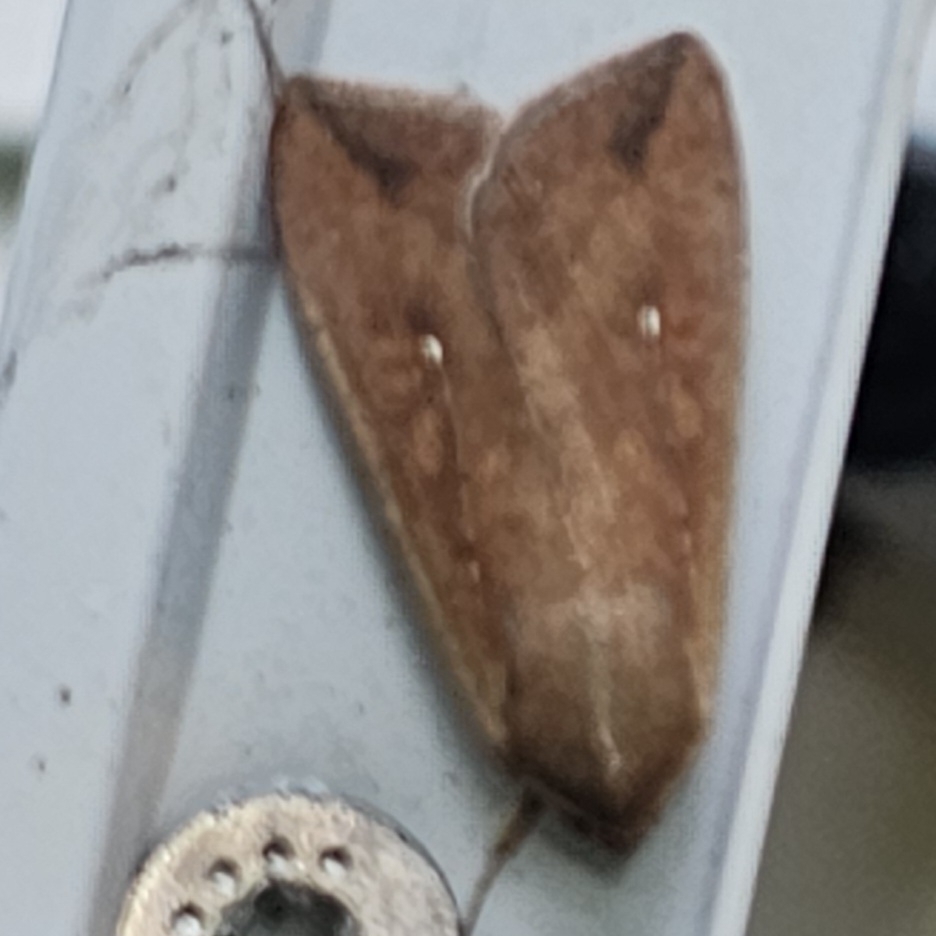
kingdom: Animalia
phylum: Arthropoda
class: Insecta
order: Lepidoptera
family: Noctuidae
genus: Mythimna
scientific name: Mythimna unipuncta
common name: White-speck
